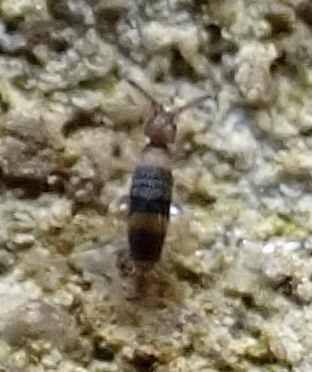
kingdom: Animalia
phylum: Arthropoda
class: Collembola
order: Entomobryomorpha
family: Entomobryidae
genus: Entomobrya
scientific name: Entomobrya albocincta
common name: Springtail
